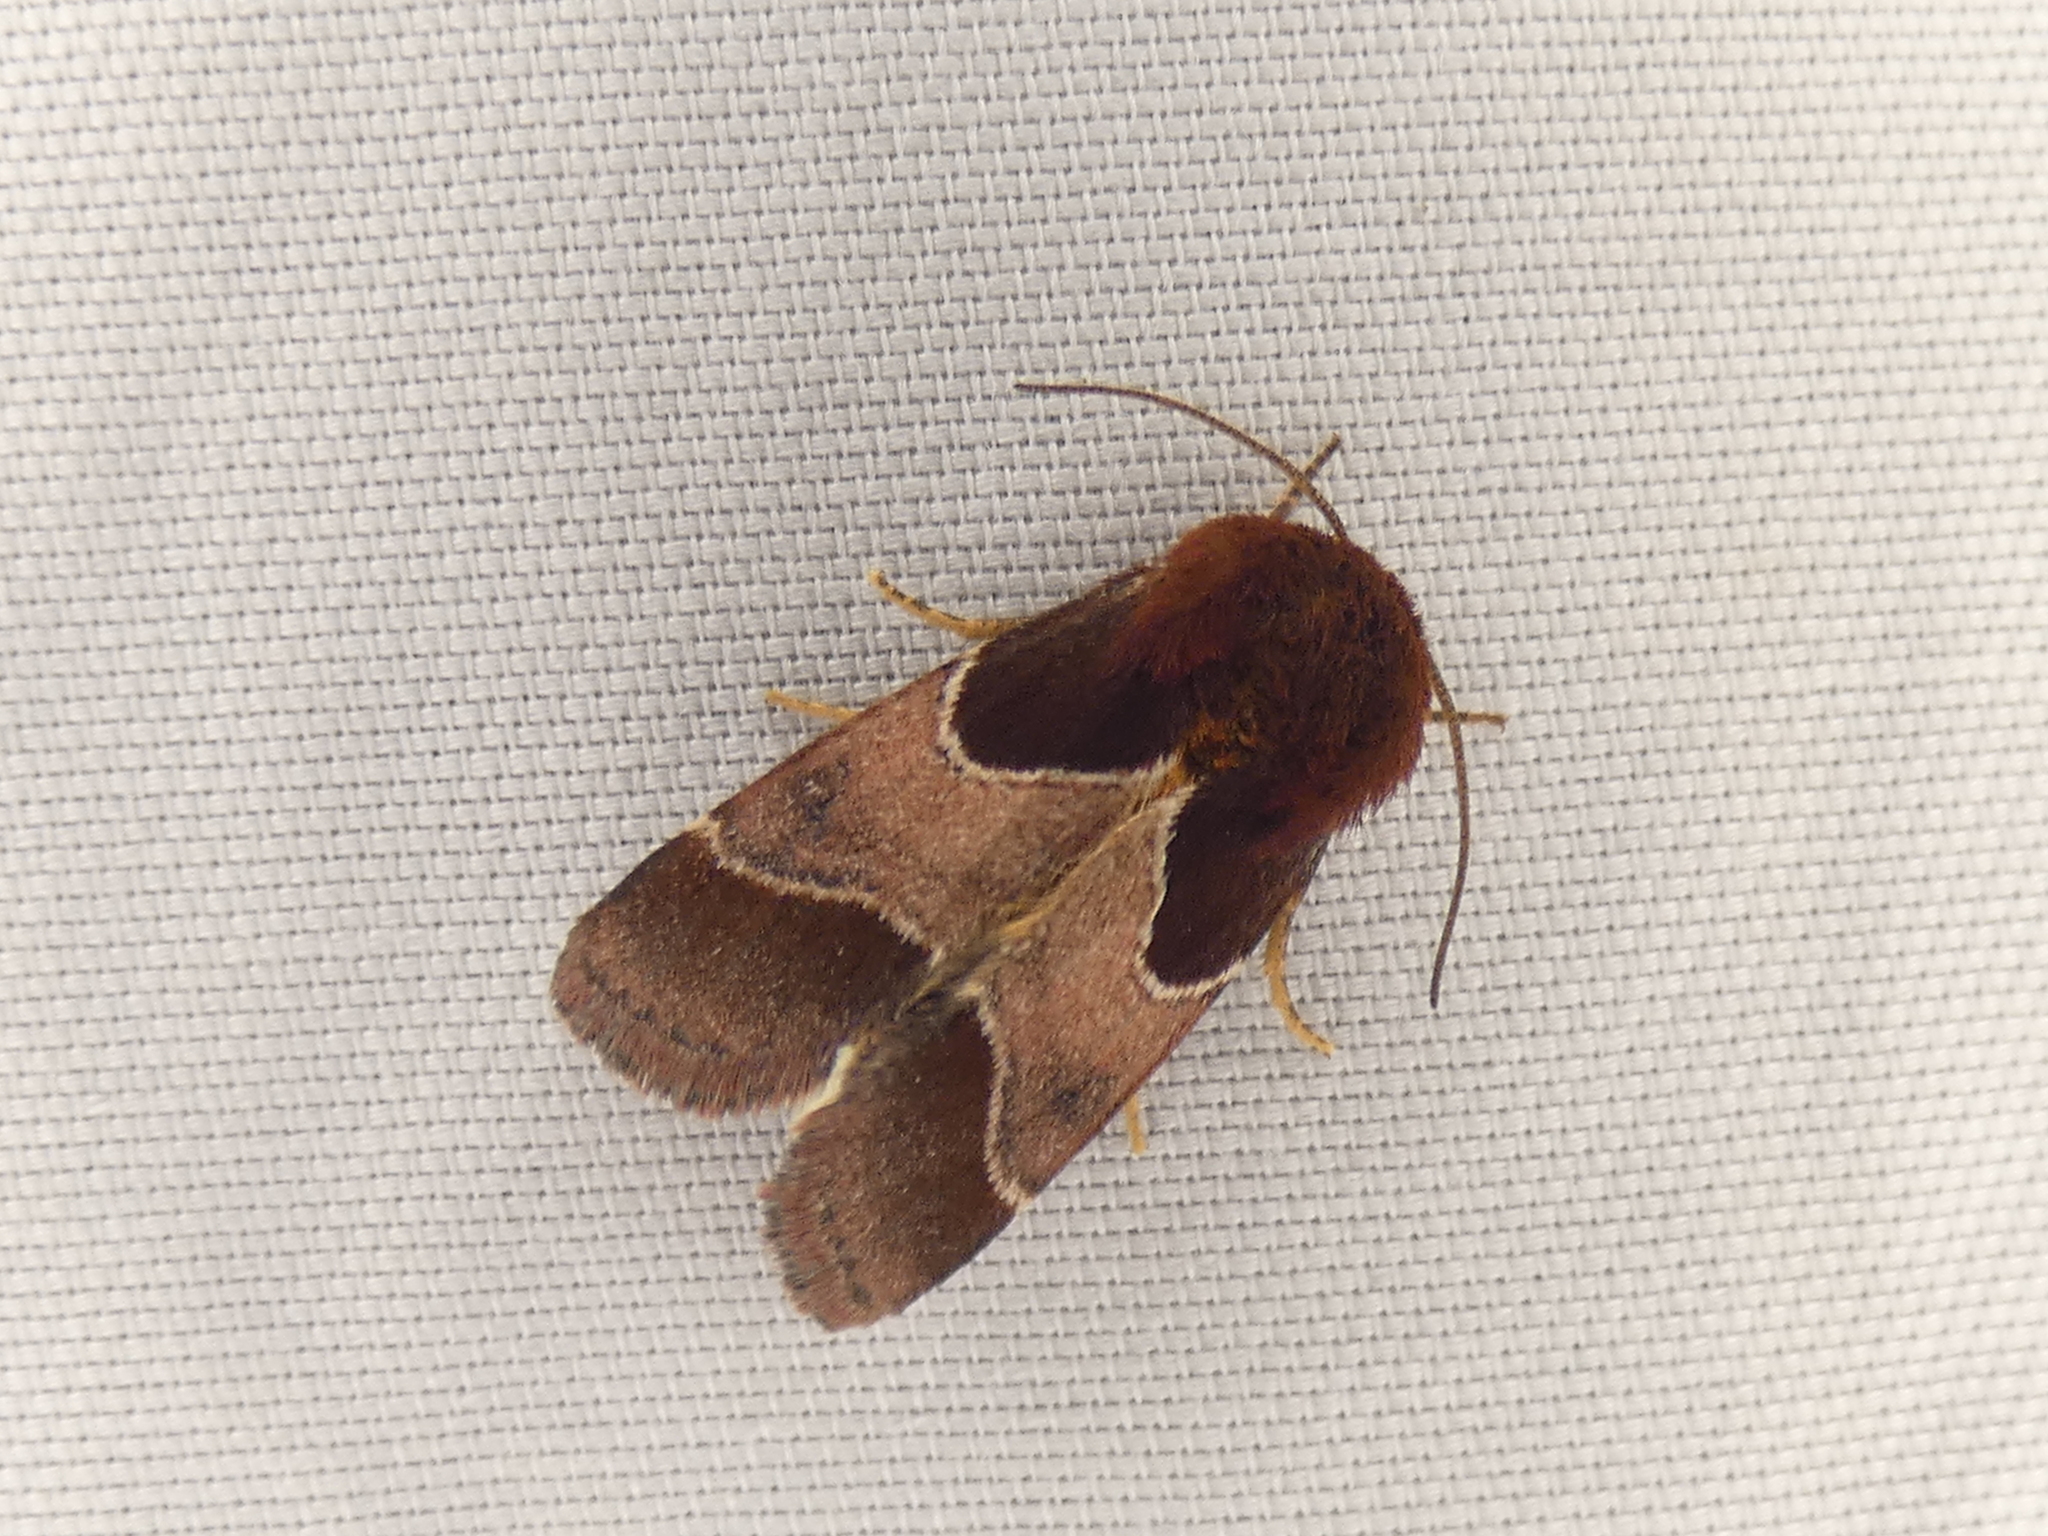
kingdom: Animalia
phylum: Arthropoda
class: Insecta
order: Lepidoptera
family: Noctuidae
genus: Schinia
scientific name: Schinia arcigera
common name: Arcigera flower moth
